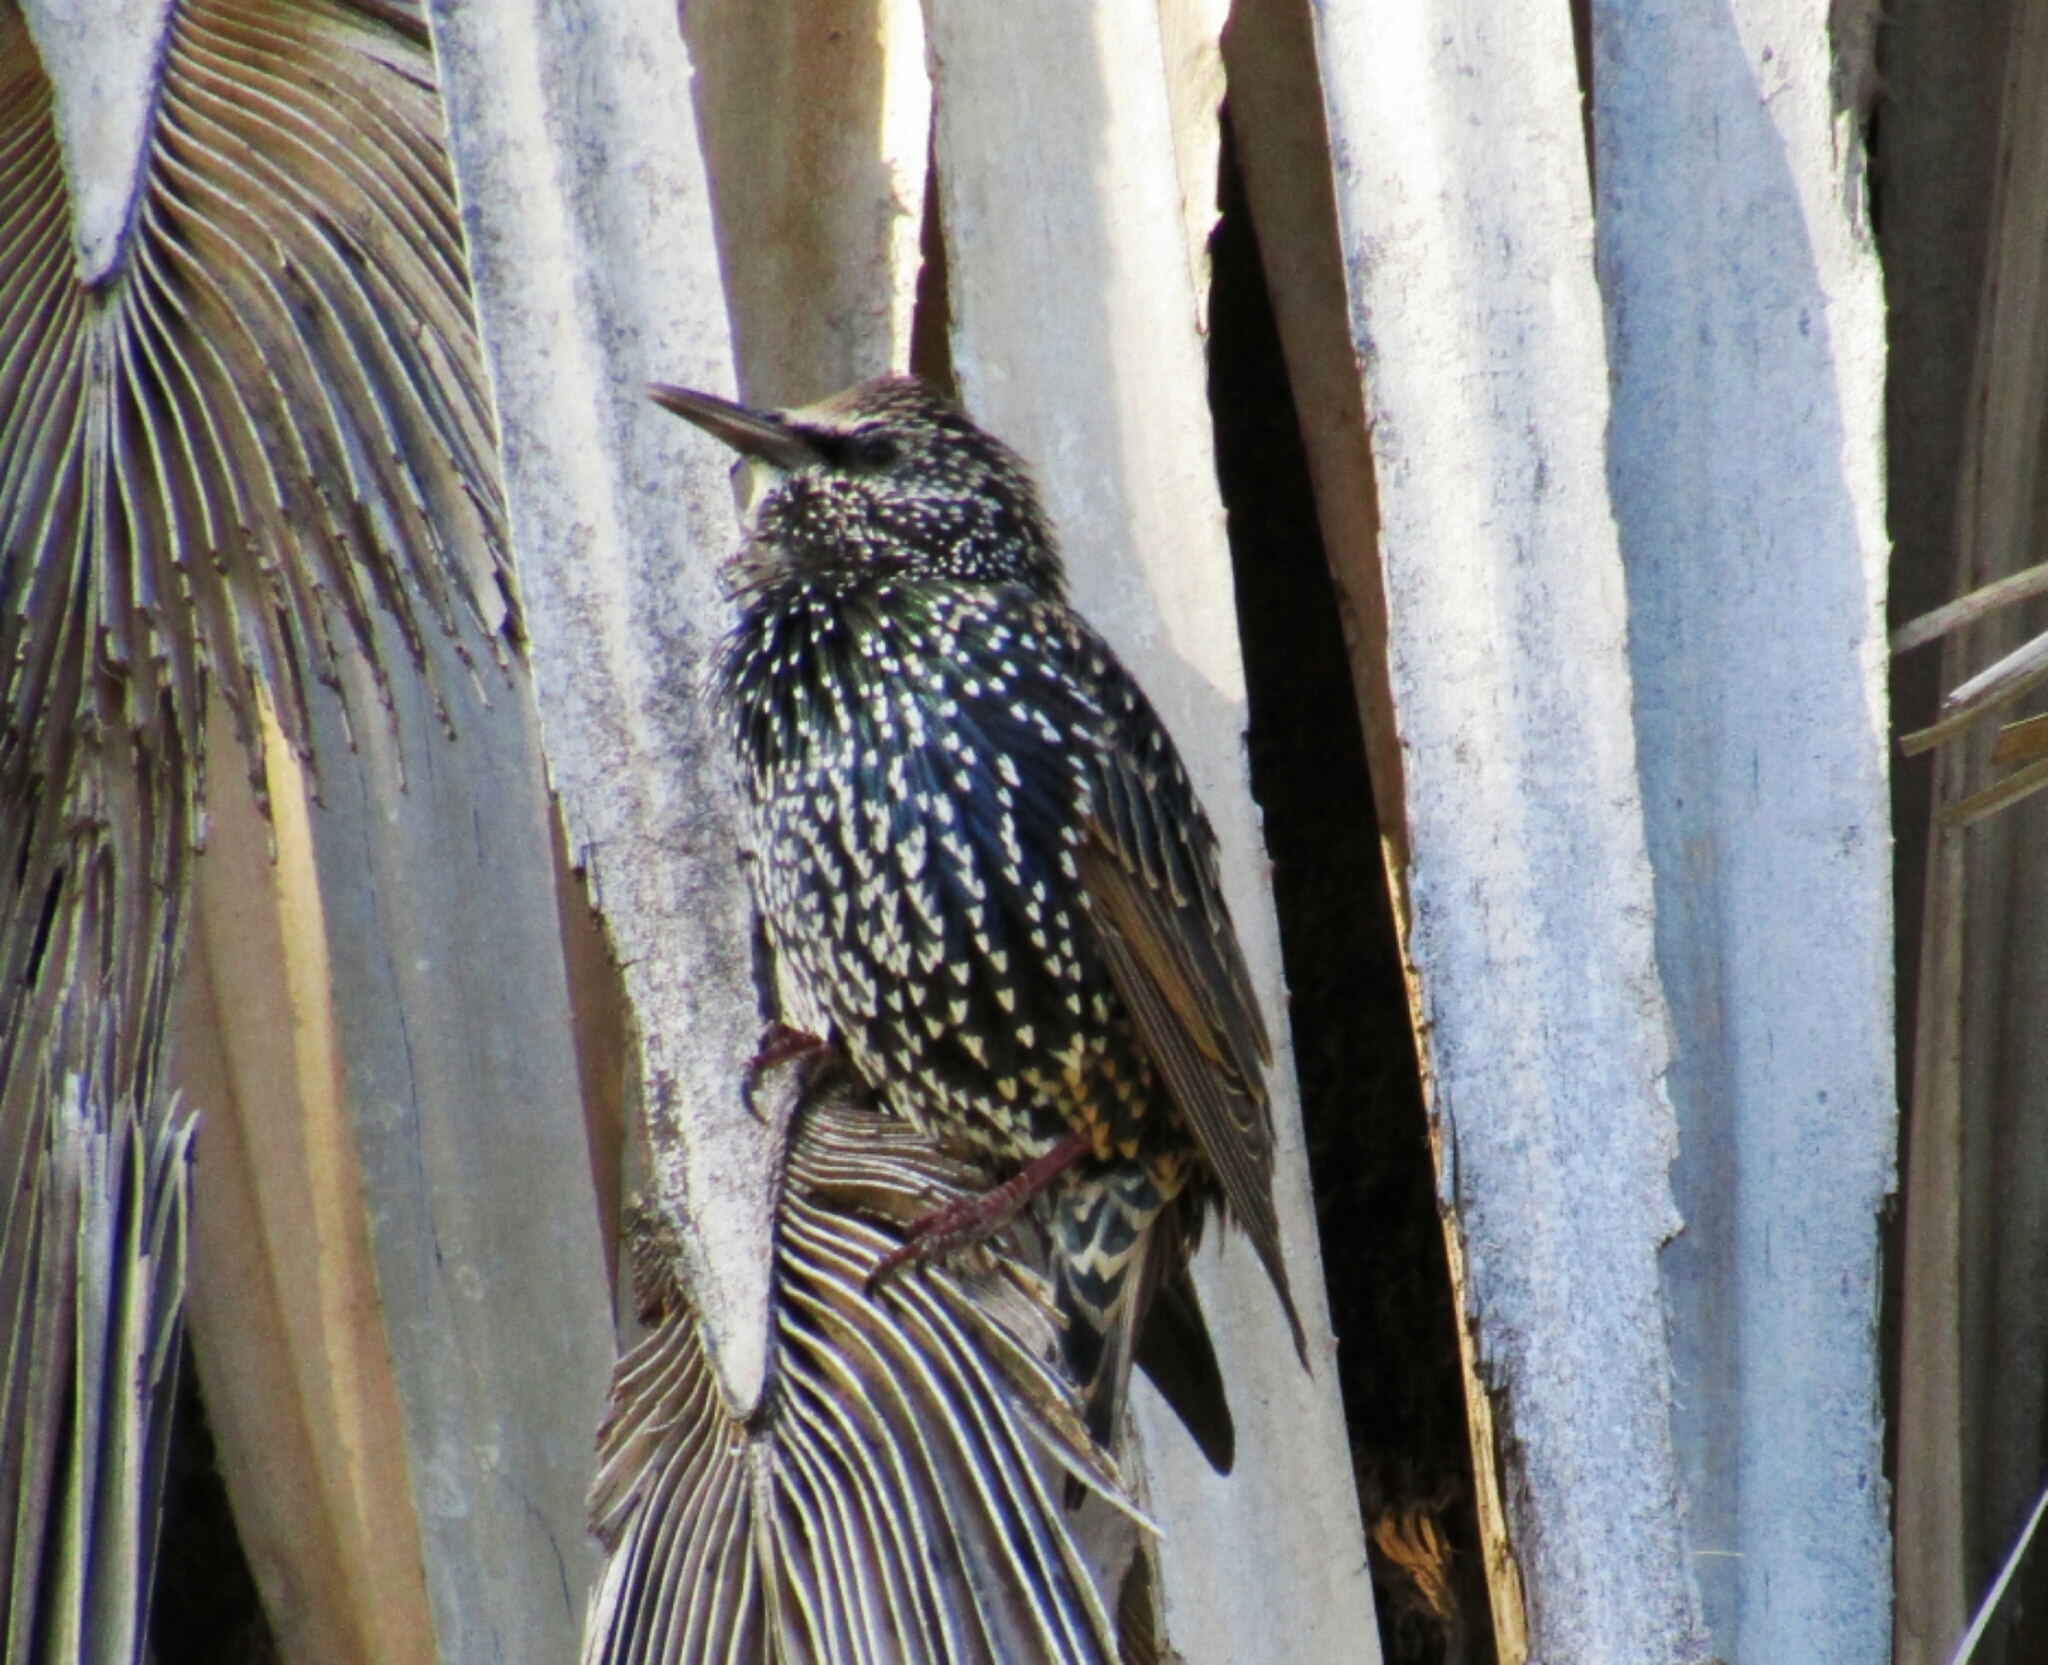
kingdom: Animalia
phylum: Chordata
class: Aves
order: Passeriformes
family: Sturnidae
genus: Sturnus
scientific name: Sturnus vulgaris
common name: Common starling
